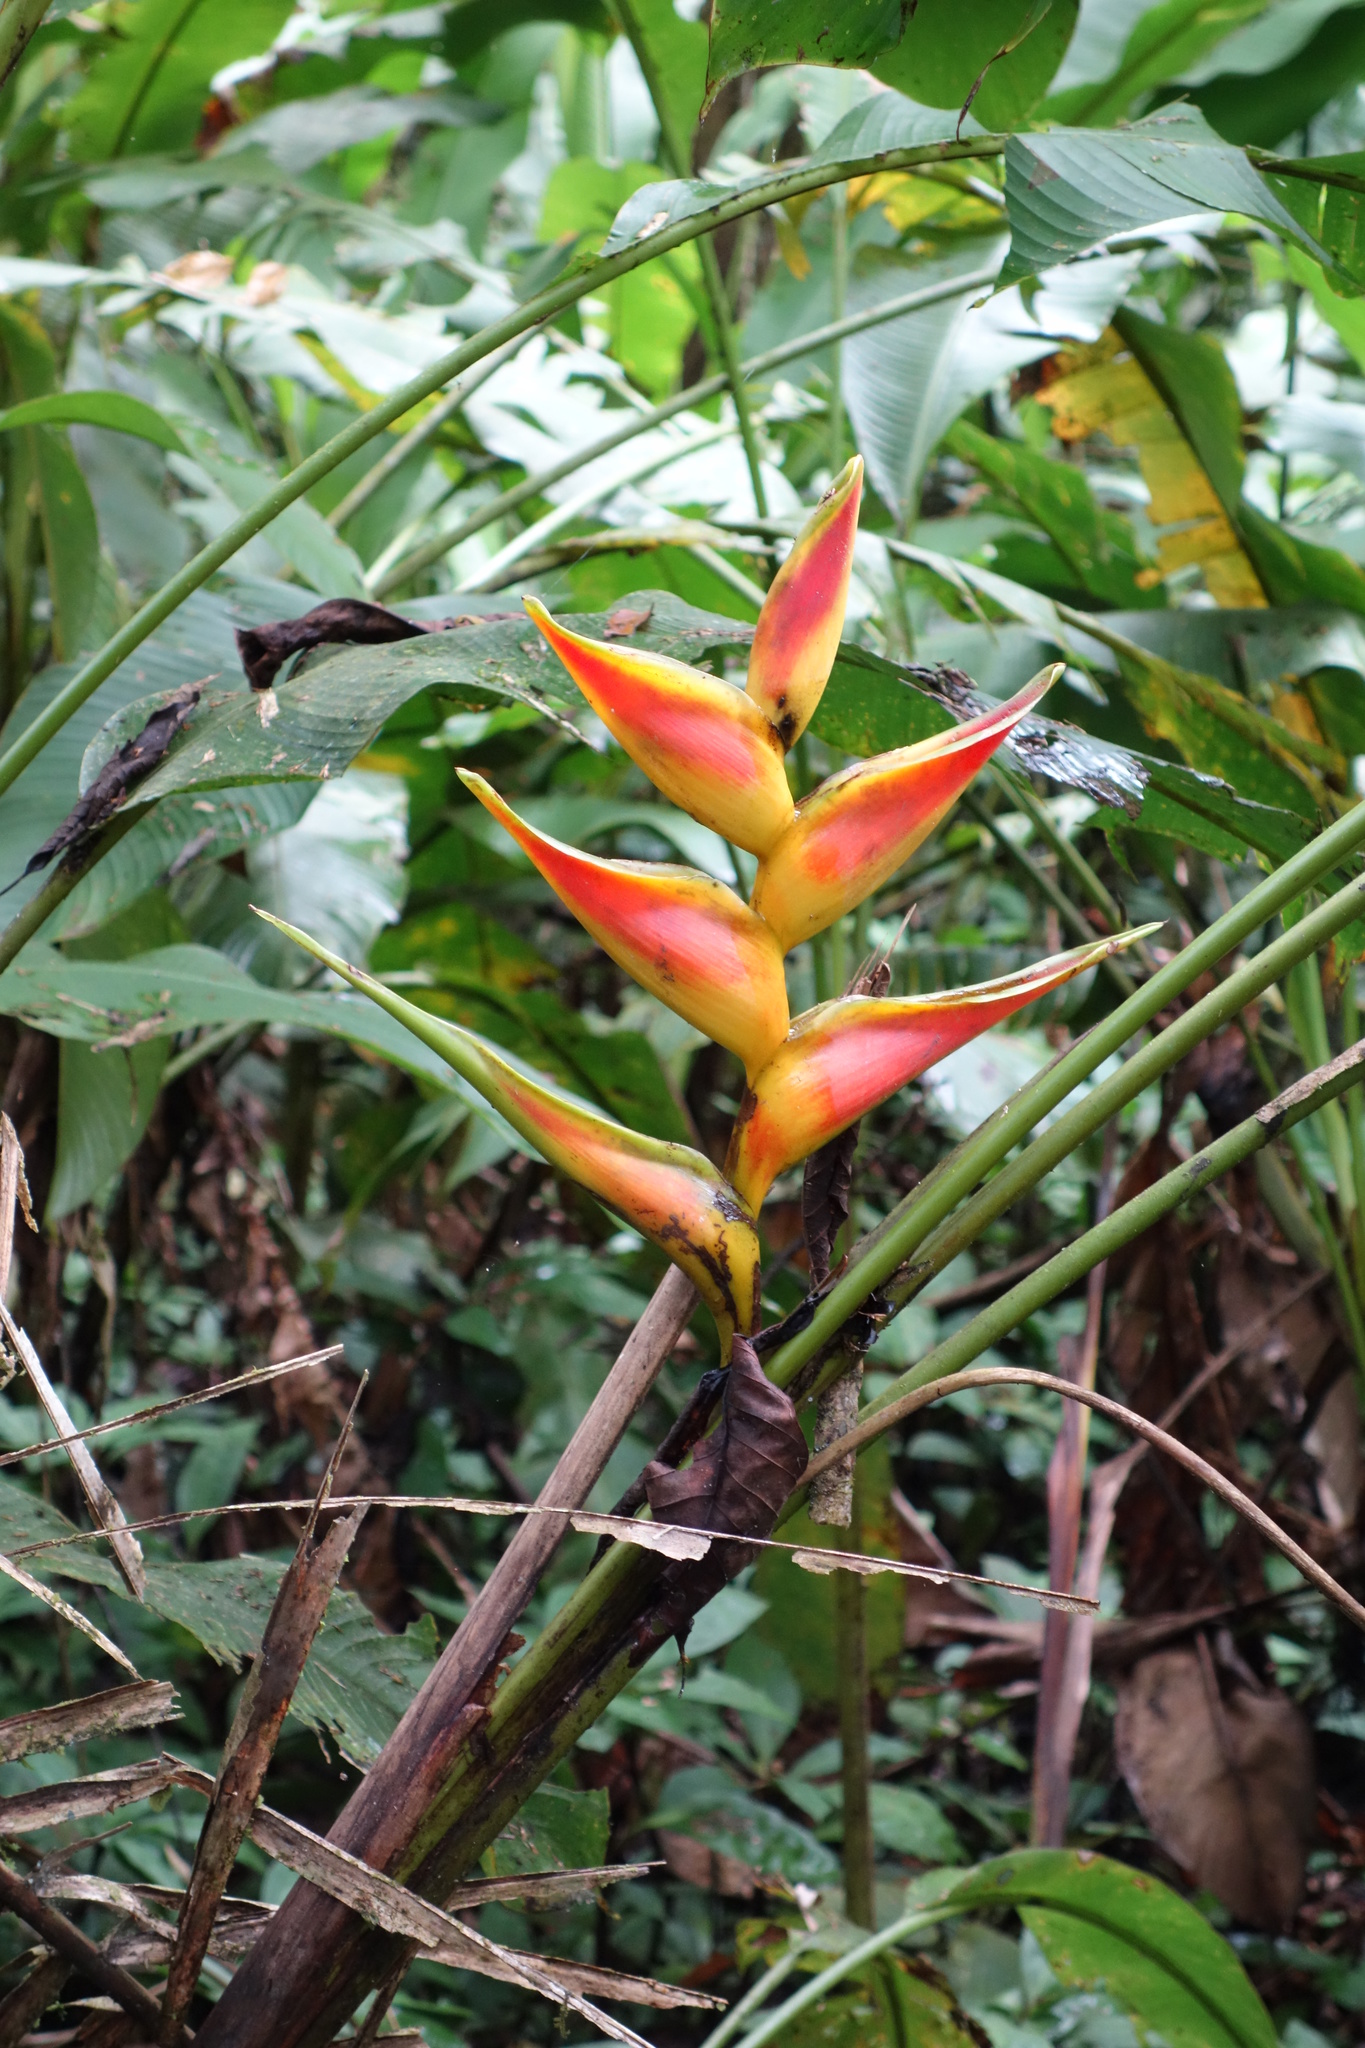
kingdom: Plantae
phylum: Tracheophyta
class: Liliopsida
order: Zingiberales
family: Heliconiaceae
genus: Heliconia
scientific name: Heliconia bihai
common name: Macaw flower
